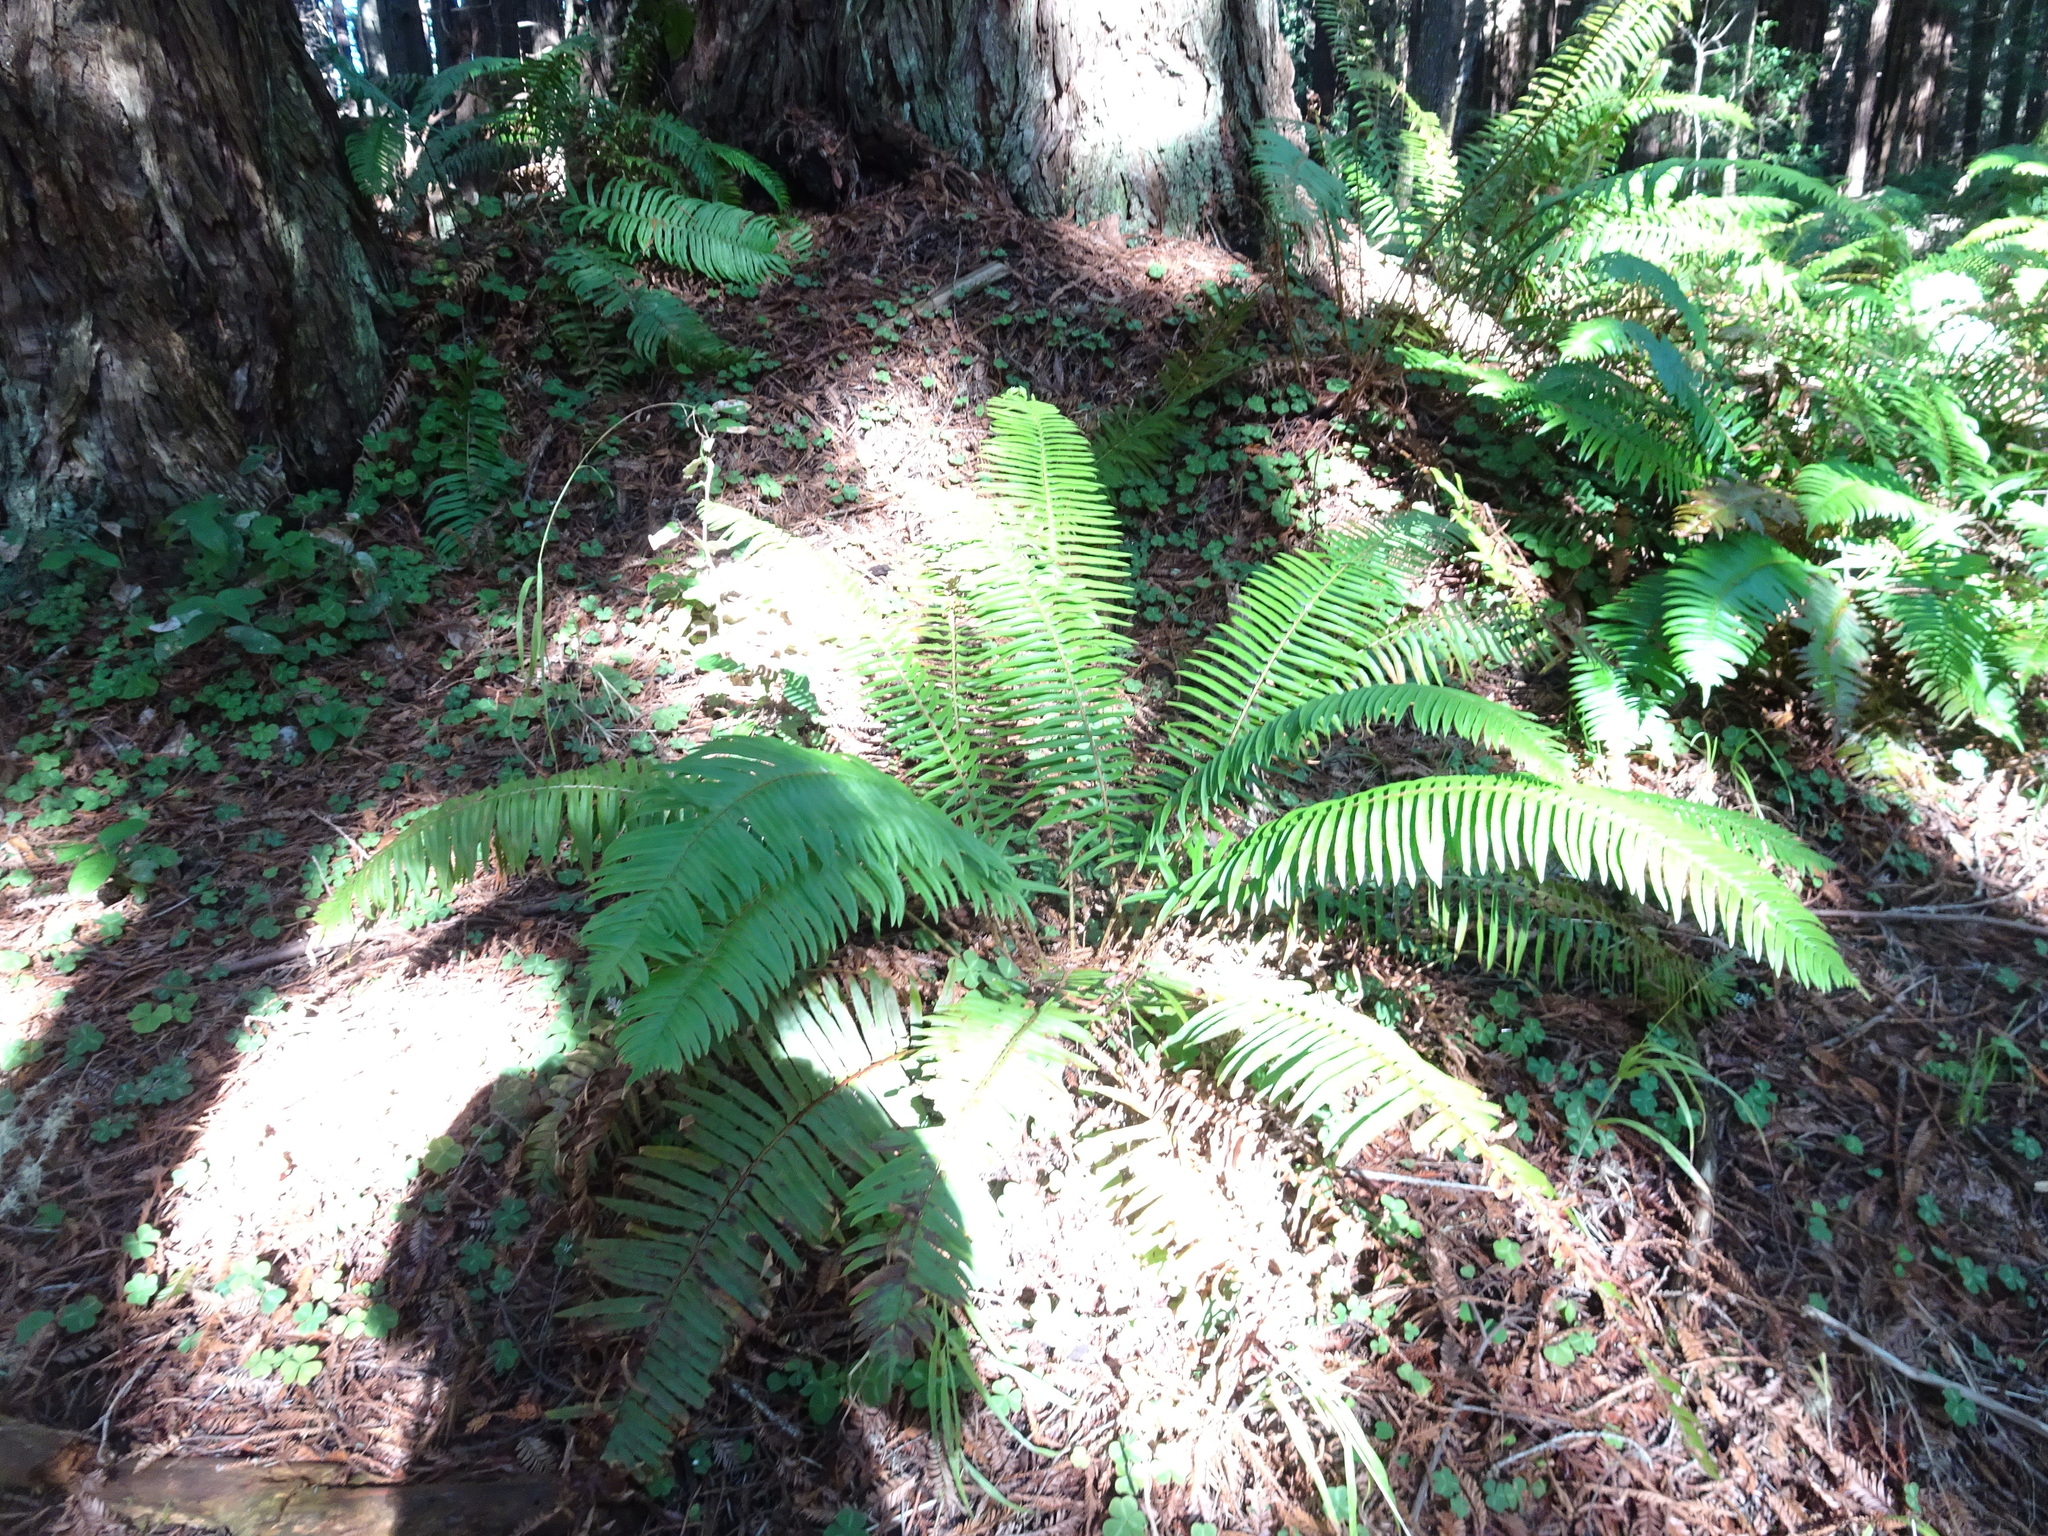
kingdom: Plantae
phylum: Tracheophyta
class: Polypodiopsida
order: Polypodiales
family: Dryopteridaceae
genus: Polystichum
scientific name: Polystichum munitum
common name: Western sword-fern
